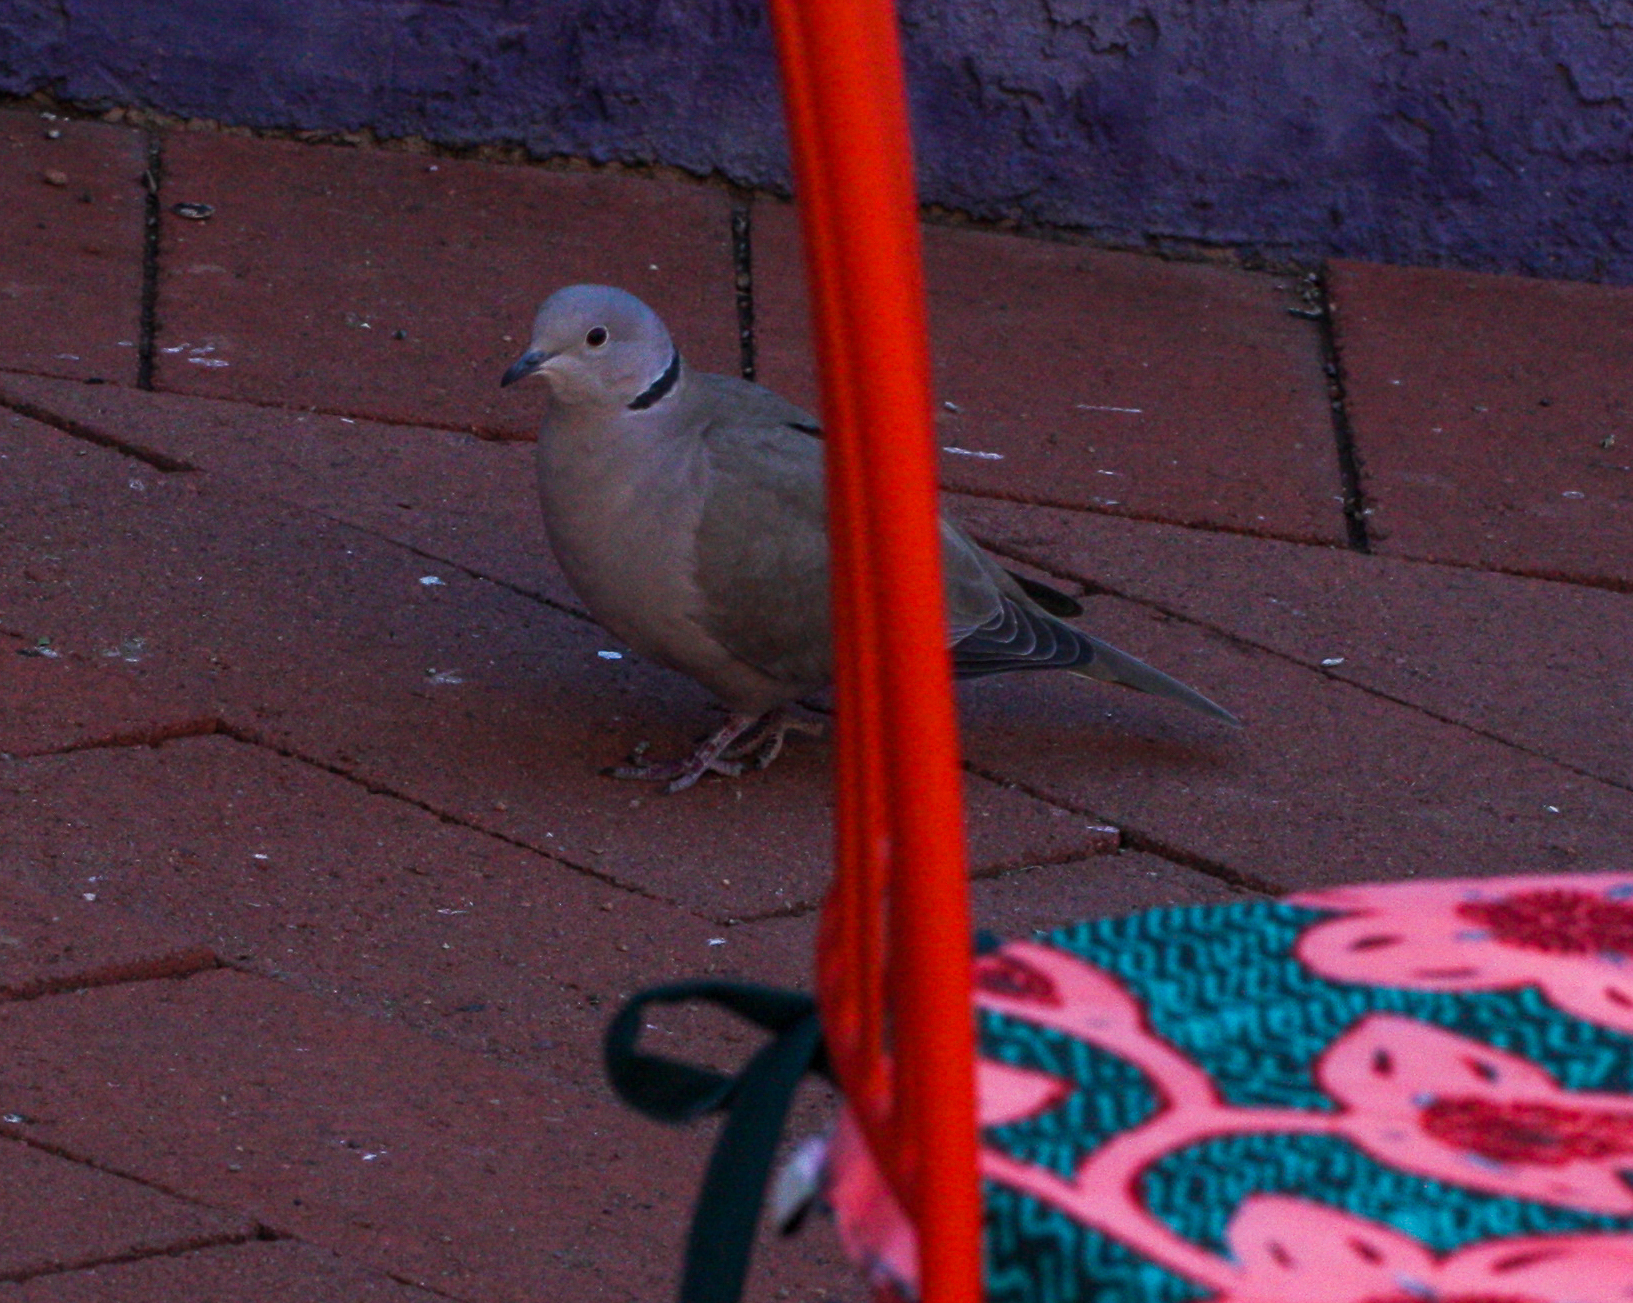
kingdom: Animalia
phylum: Chordata
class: Aves
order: Columbiformes
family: Columbidae
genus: Streptopelia
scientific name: Streptopelia decaocto
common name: Eurasian collared dove
